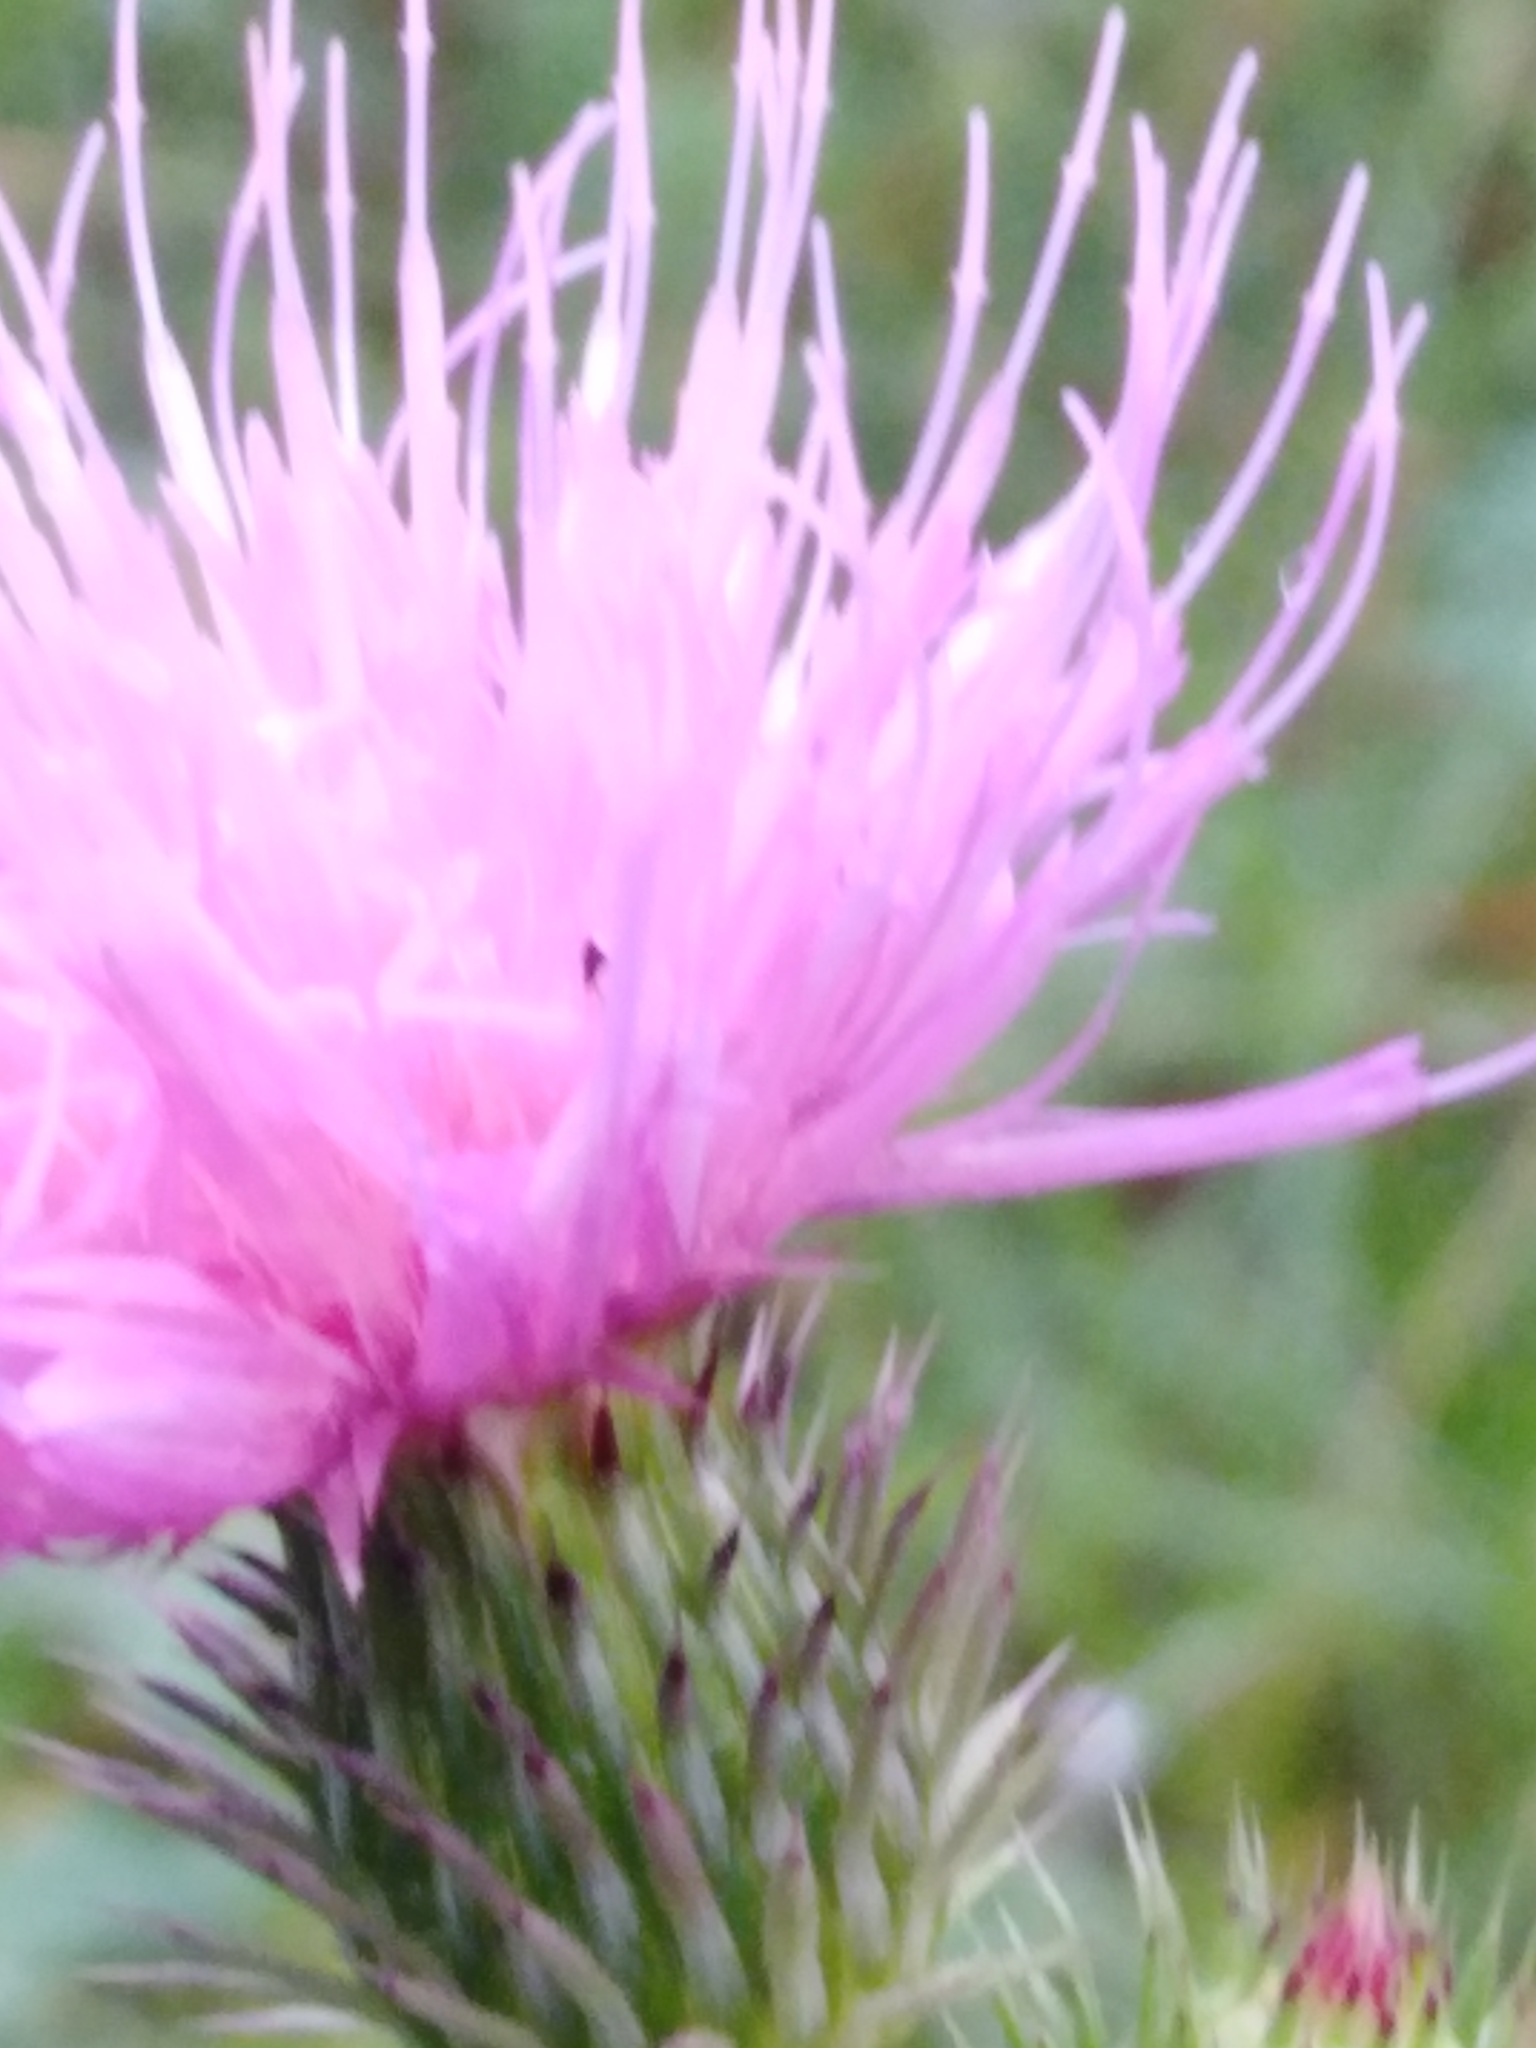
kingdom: Plantae
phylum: Tracheophyta
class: Magnoliopsida
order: Asterales
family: Asteraceae
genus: Carduus
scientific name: Carduus acanthoides
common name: Plumeless thistle
